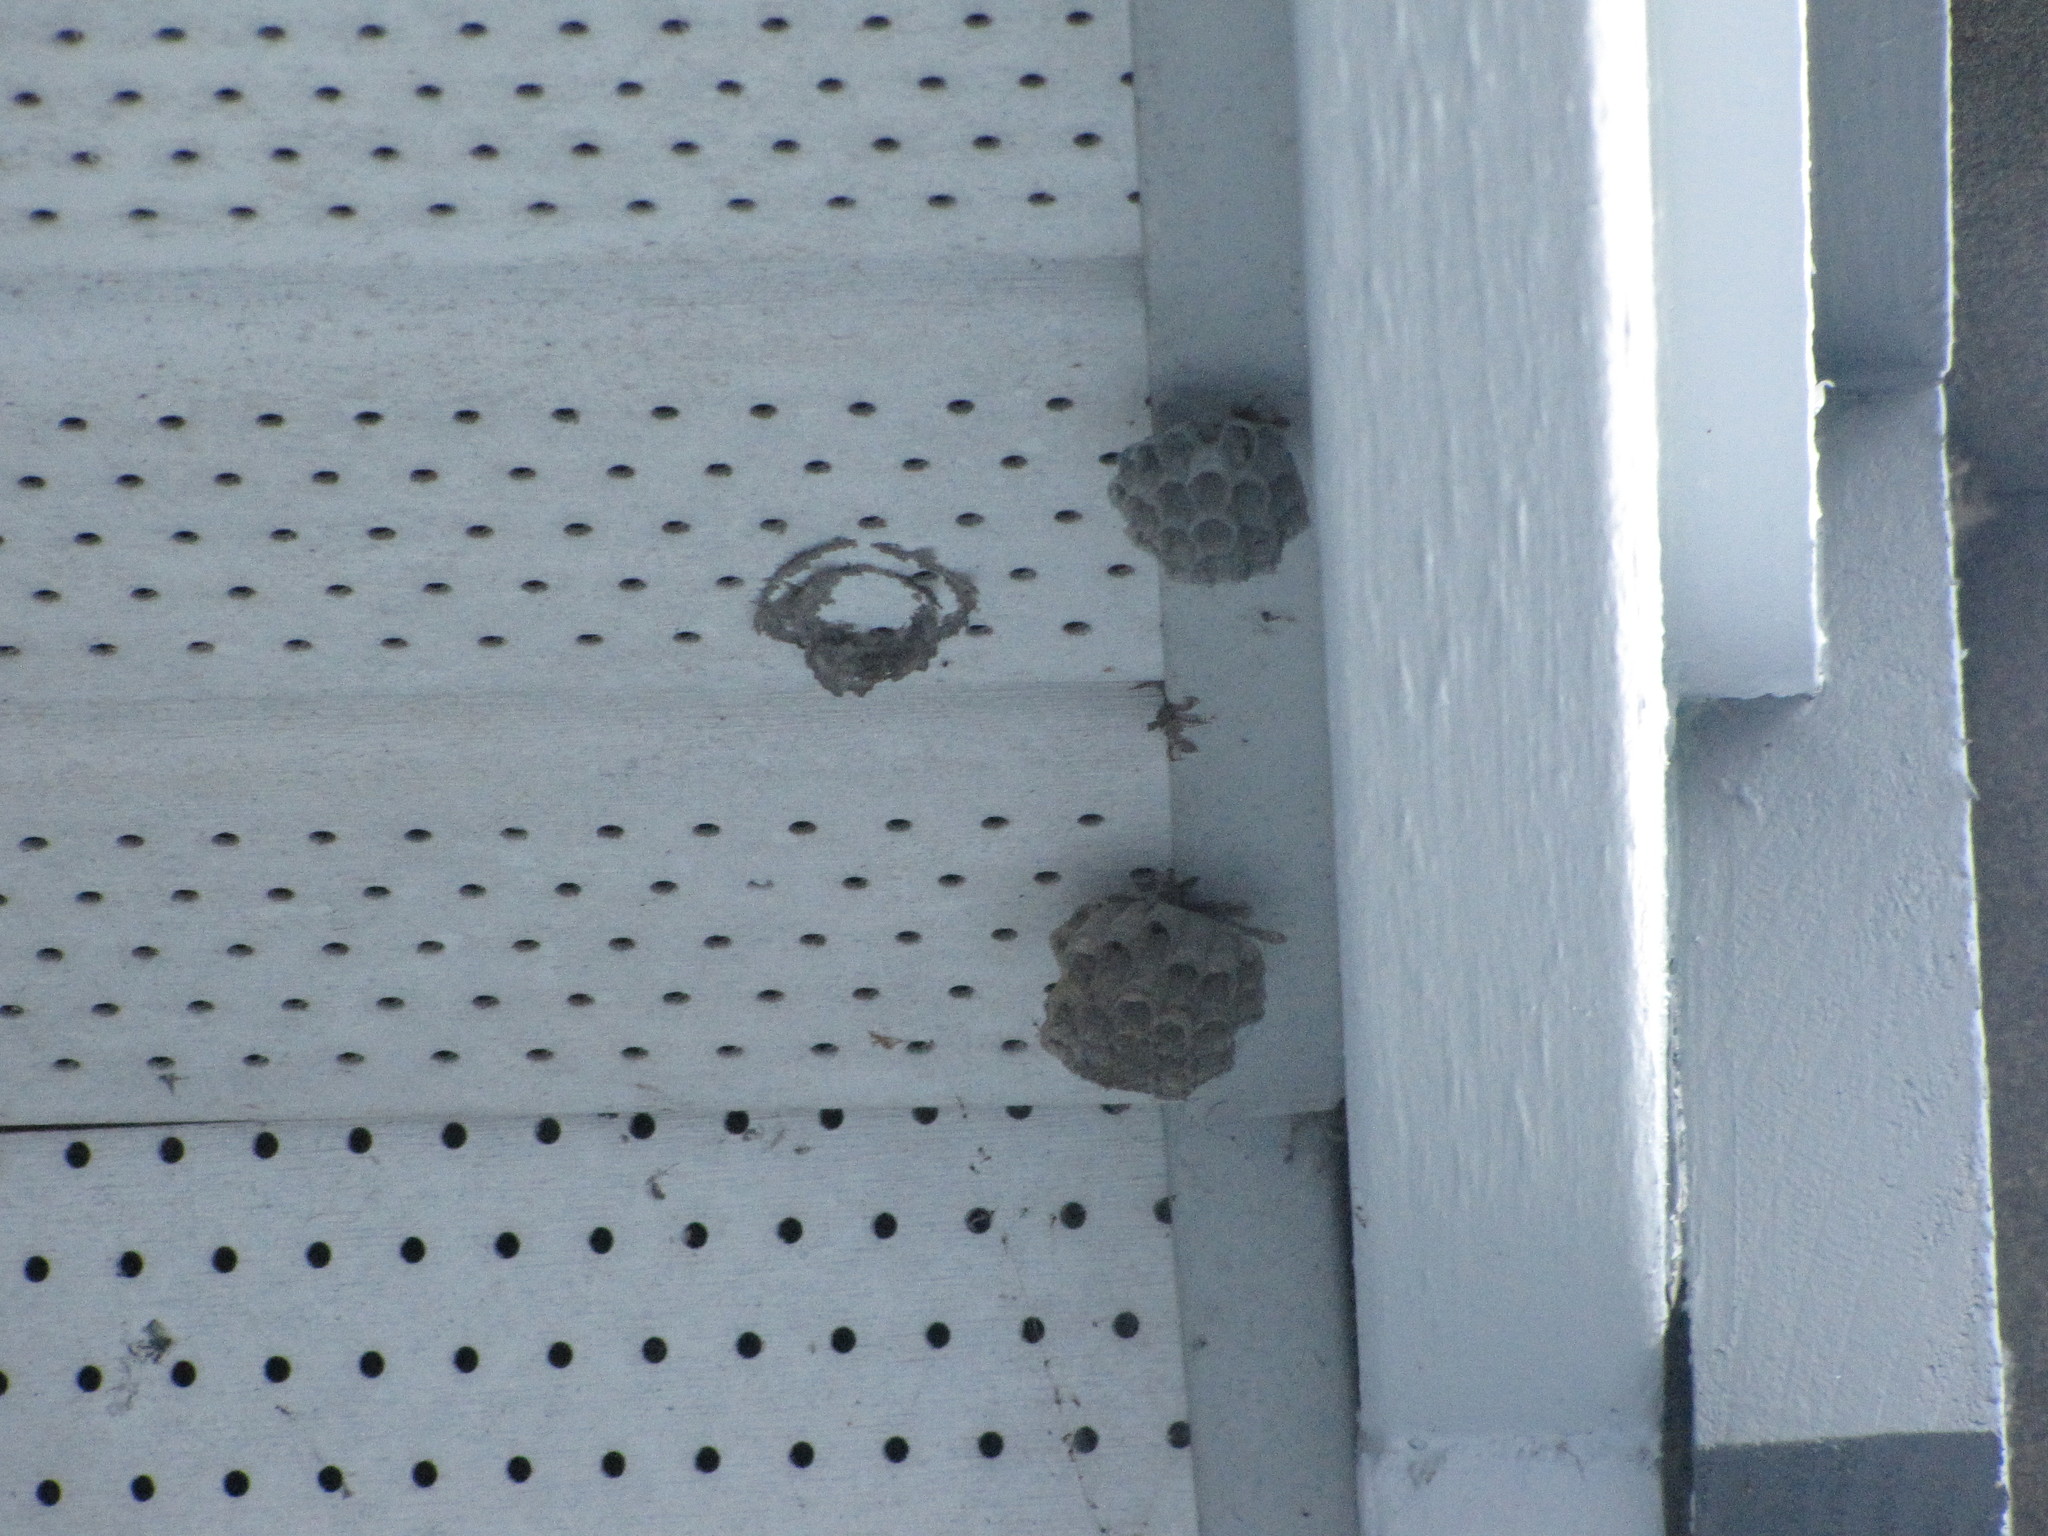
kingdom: Animalia
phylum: Arthropoda
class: Insecta
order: Hymenoptera
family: Eumenidae
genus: Polistes
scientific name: Polistes
